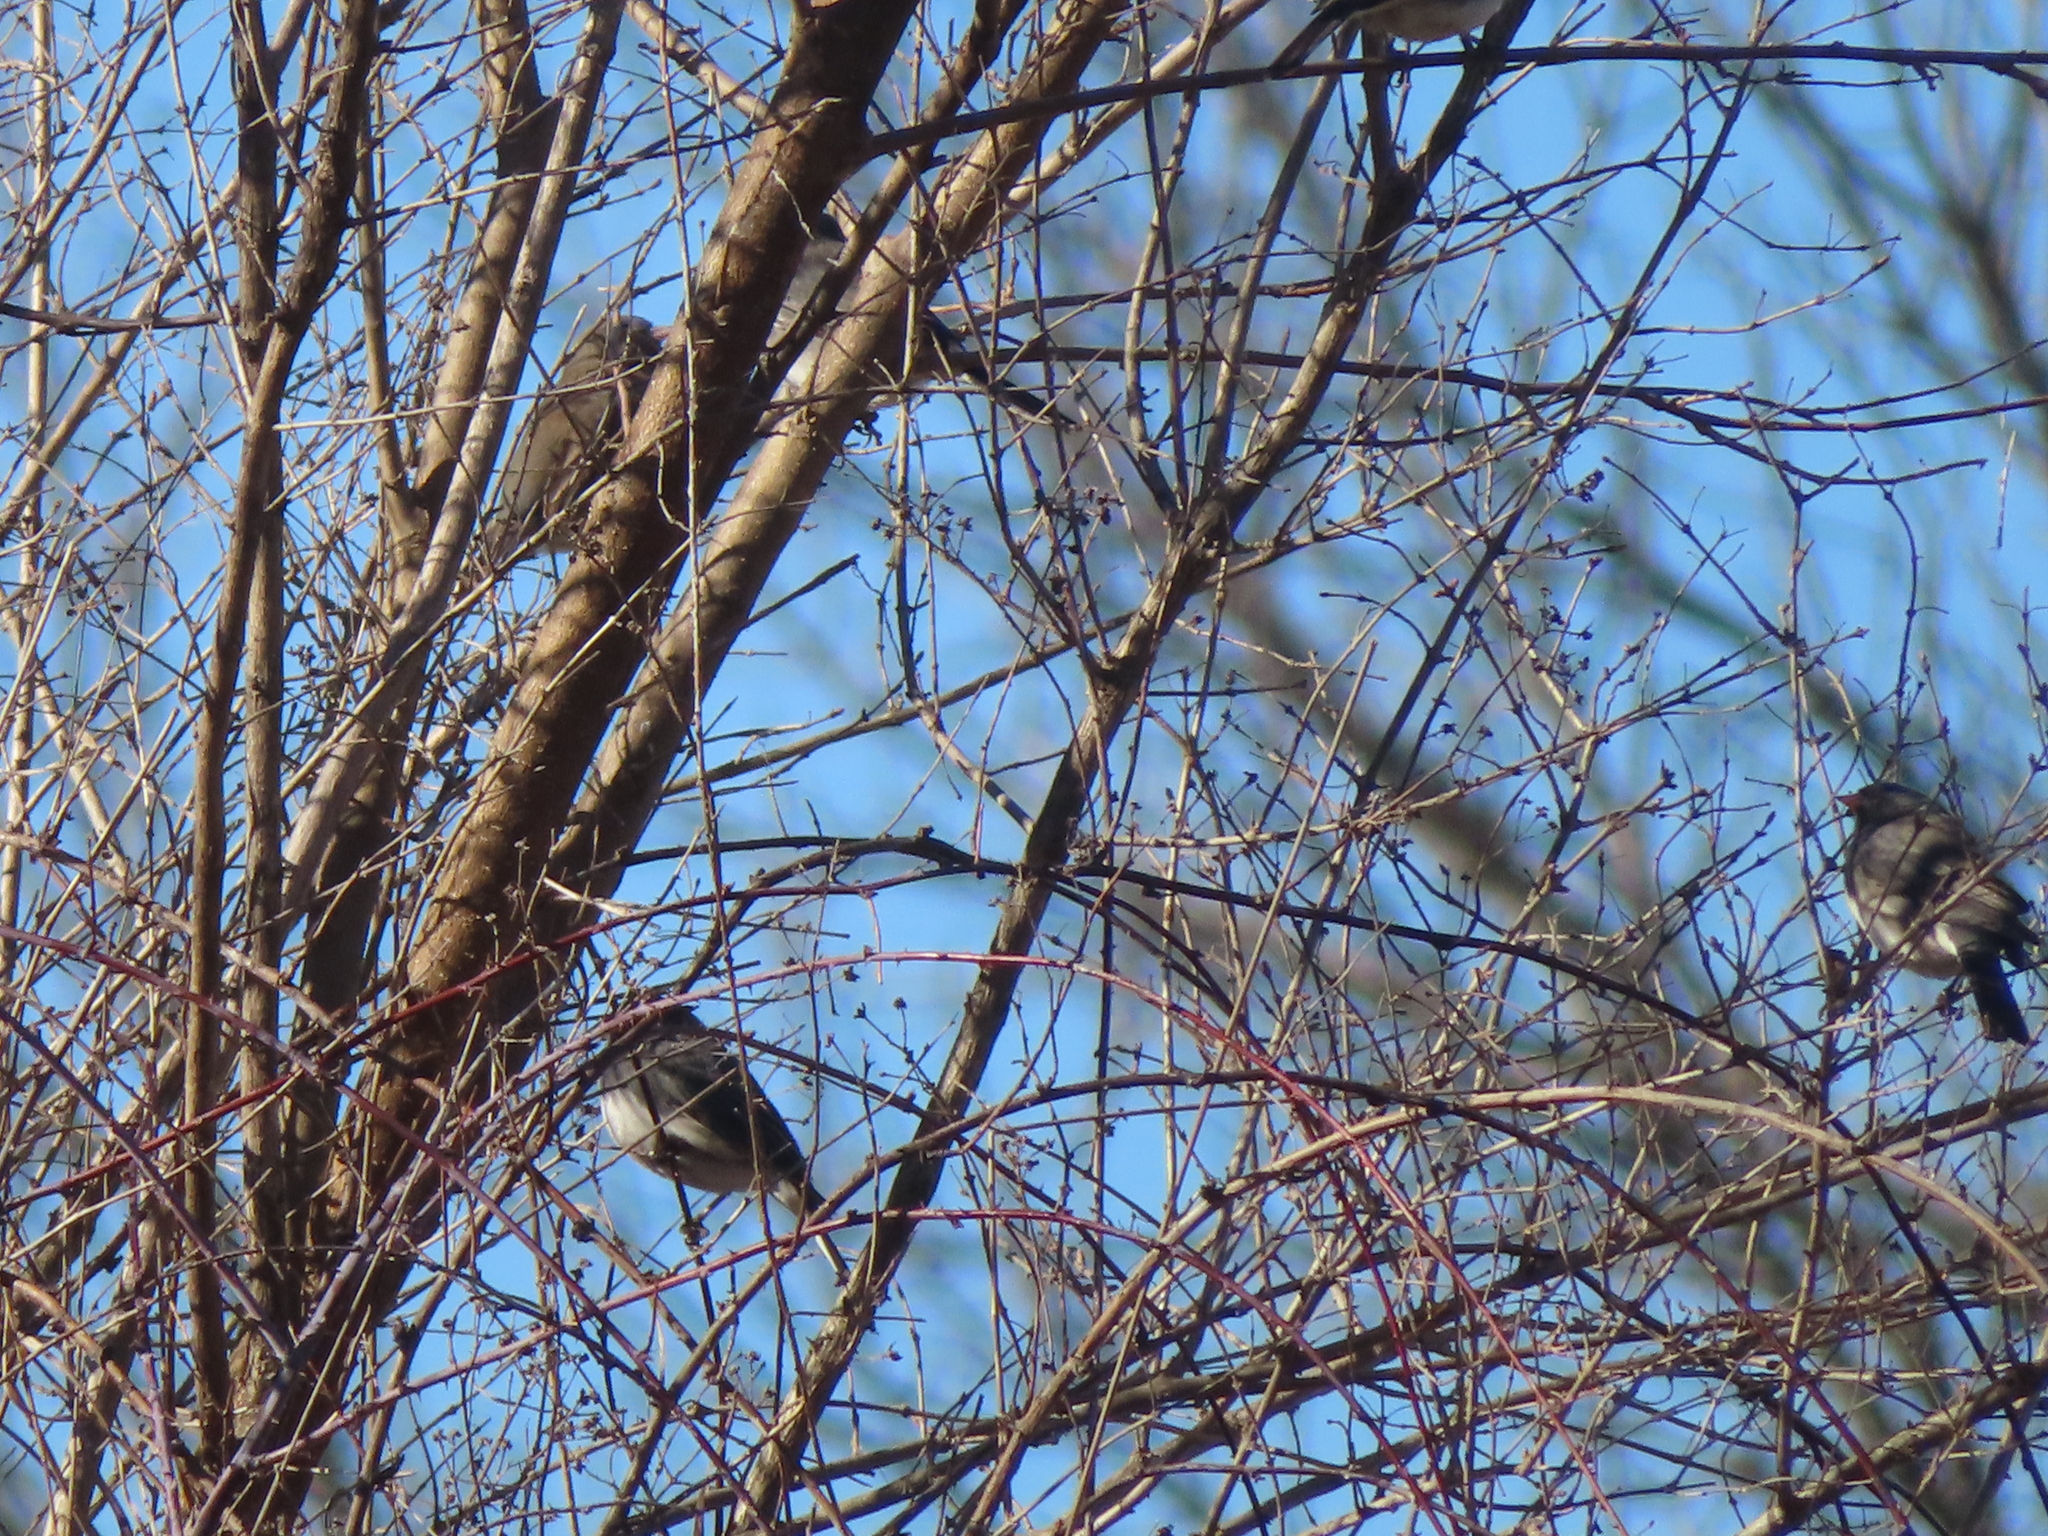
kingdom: Animalia
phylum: Chordata
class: Aves
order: Passeriformes
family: Passerellidae
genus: Junco
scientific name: Junco hyemalis
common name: Dark-eyed junco
